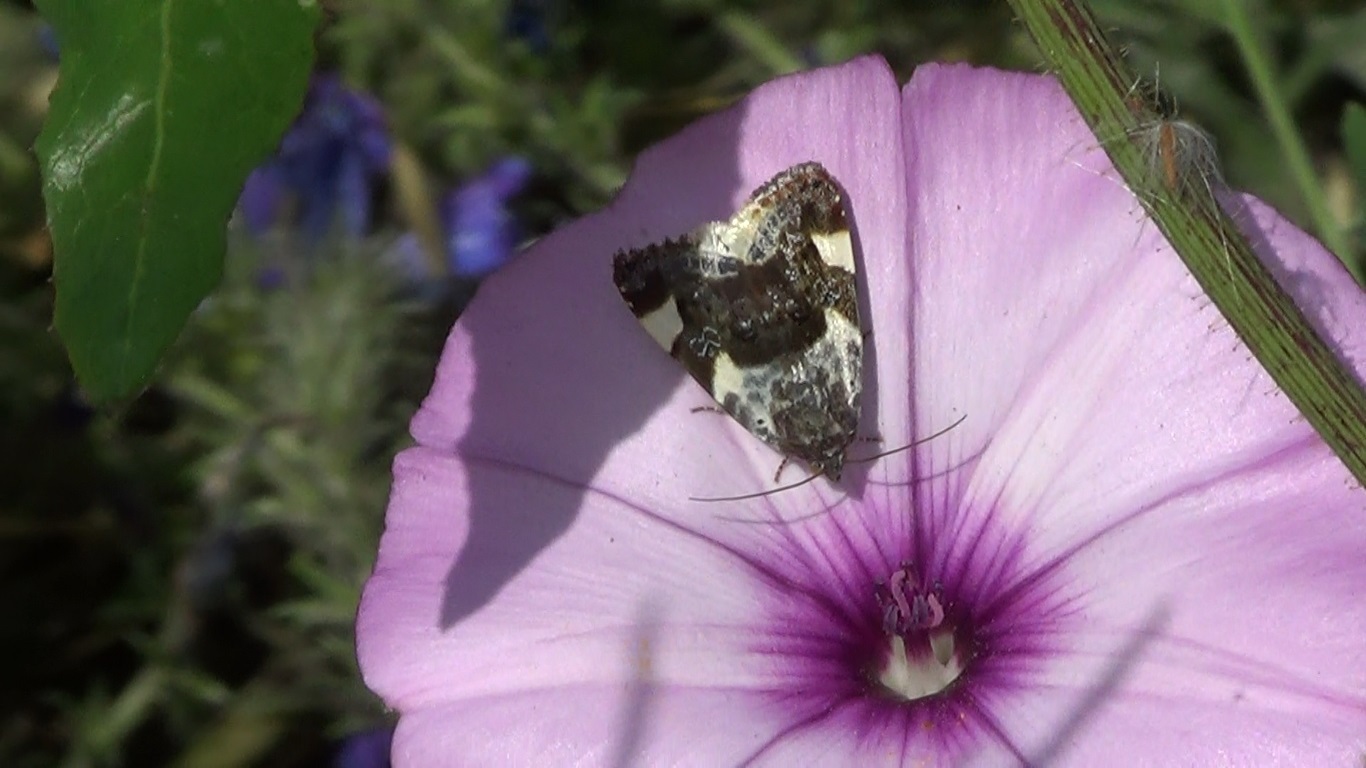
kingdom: Animalia
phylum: Arthropoda
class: Insecta
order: Lepidoptera
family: Noctuidae
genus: Acontia
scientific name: Acontia lucida
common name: Pale shoulder
